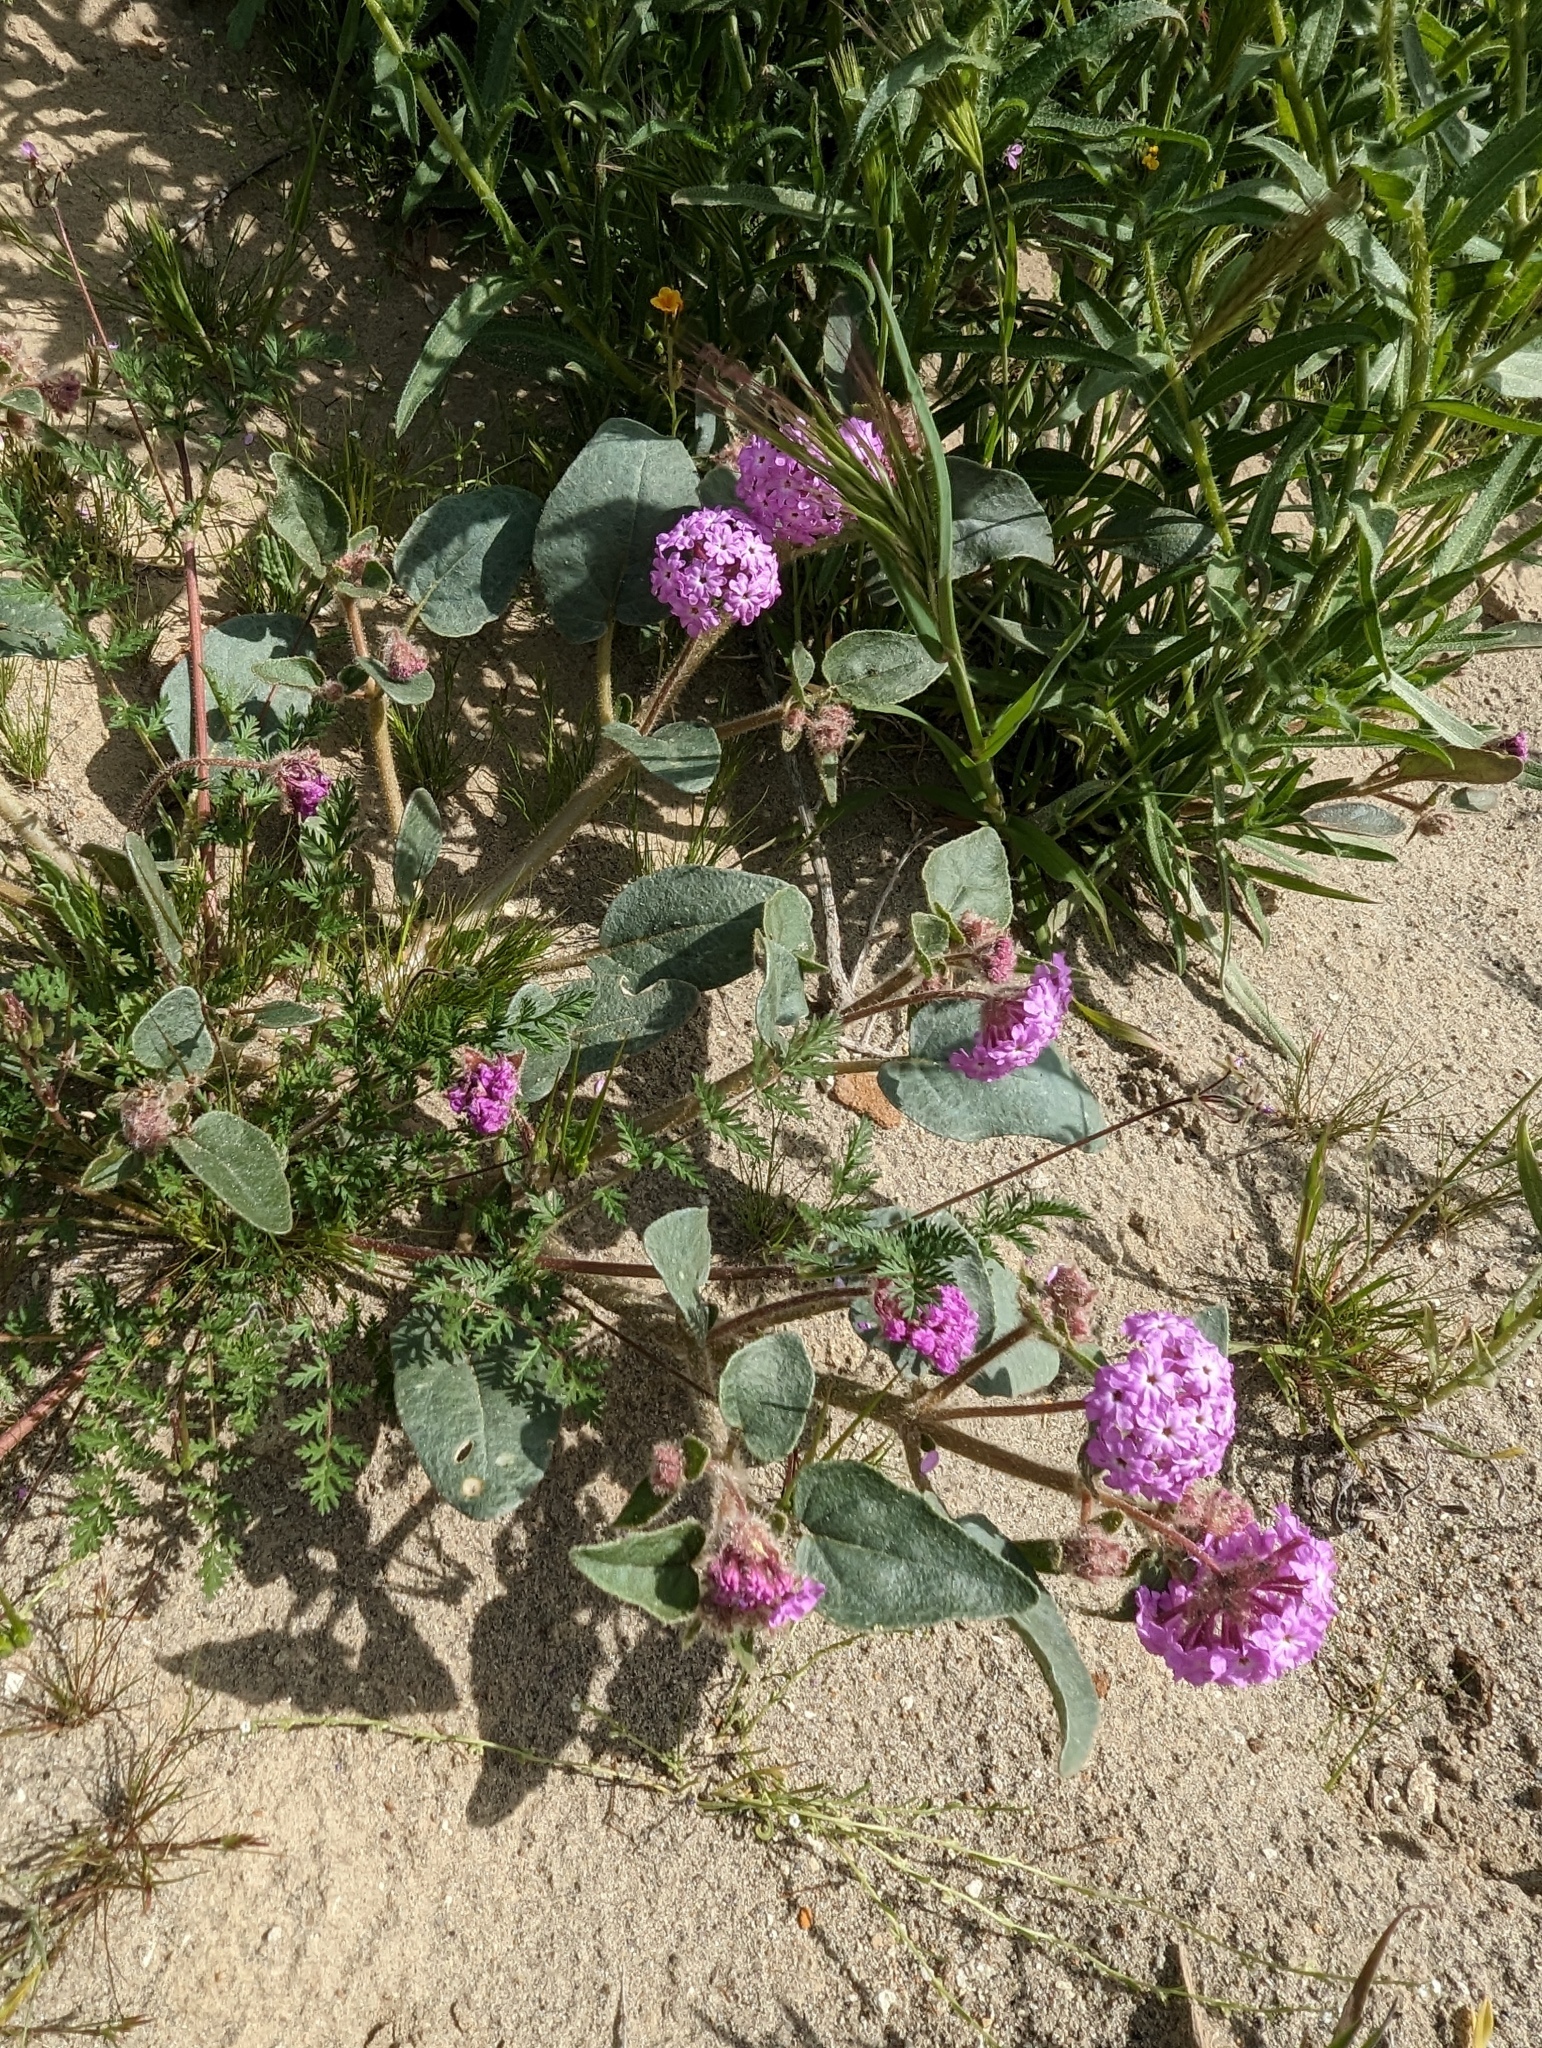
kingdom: Plantae
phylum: Tracheophyta
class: Magnoliopsida
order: Caryophyllales
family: Nyctaginaceae
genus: Abronia
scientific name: Abronia pogonantha
